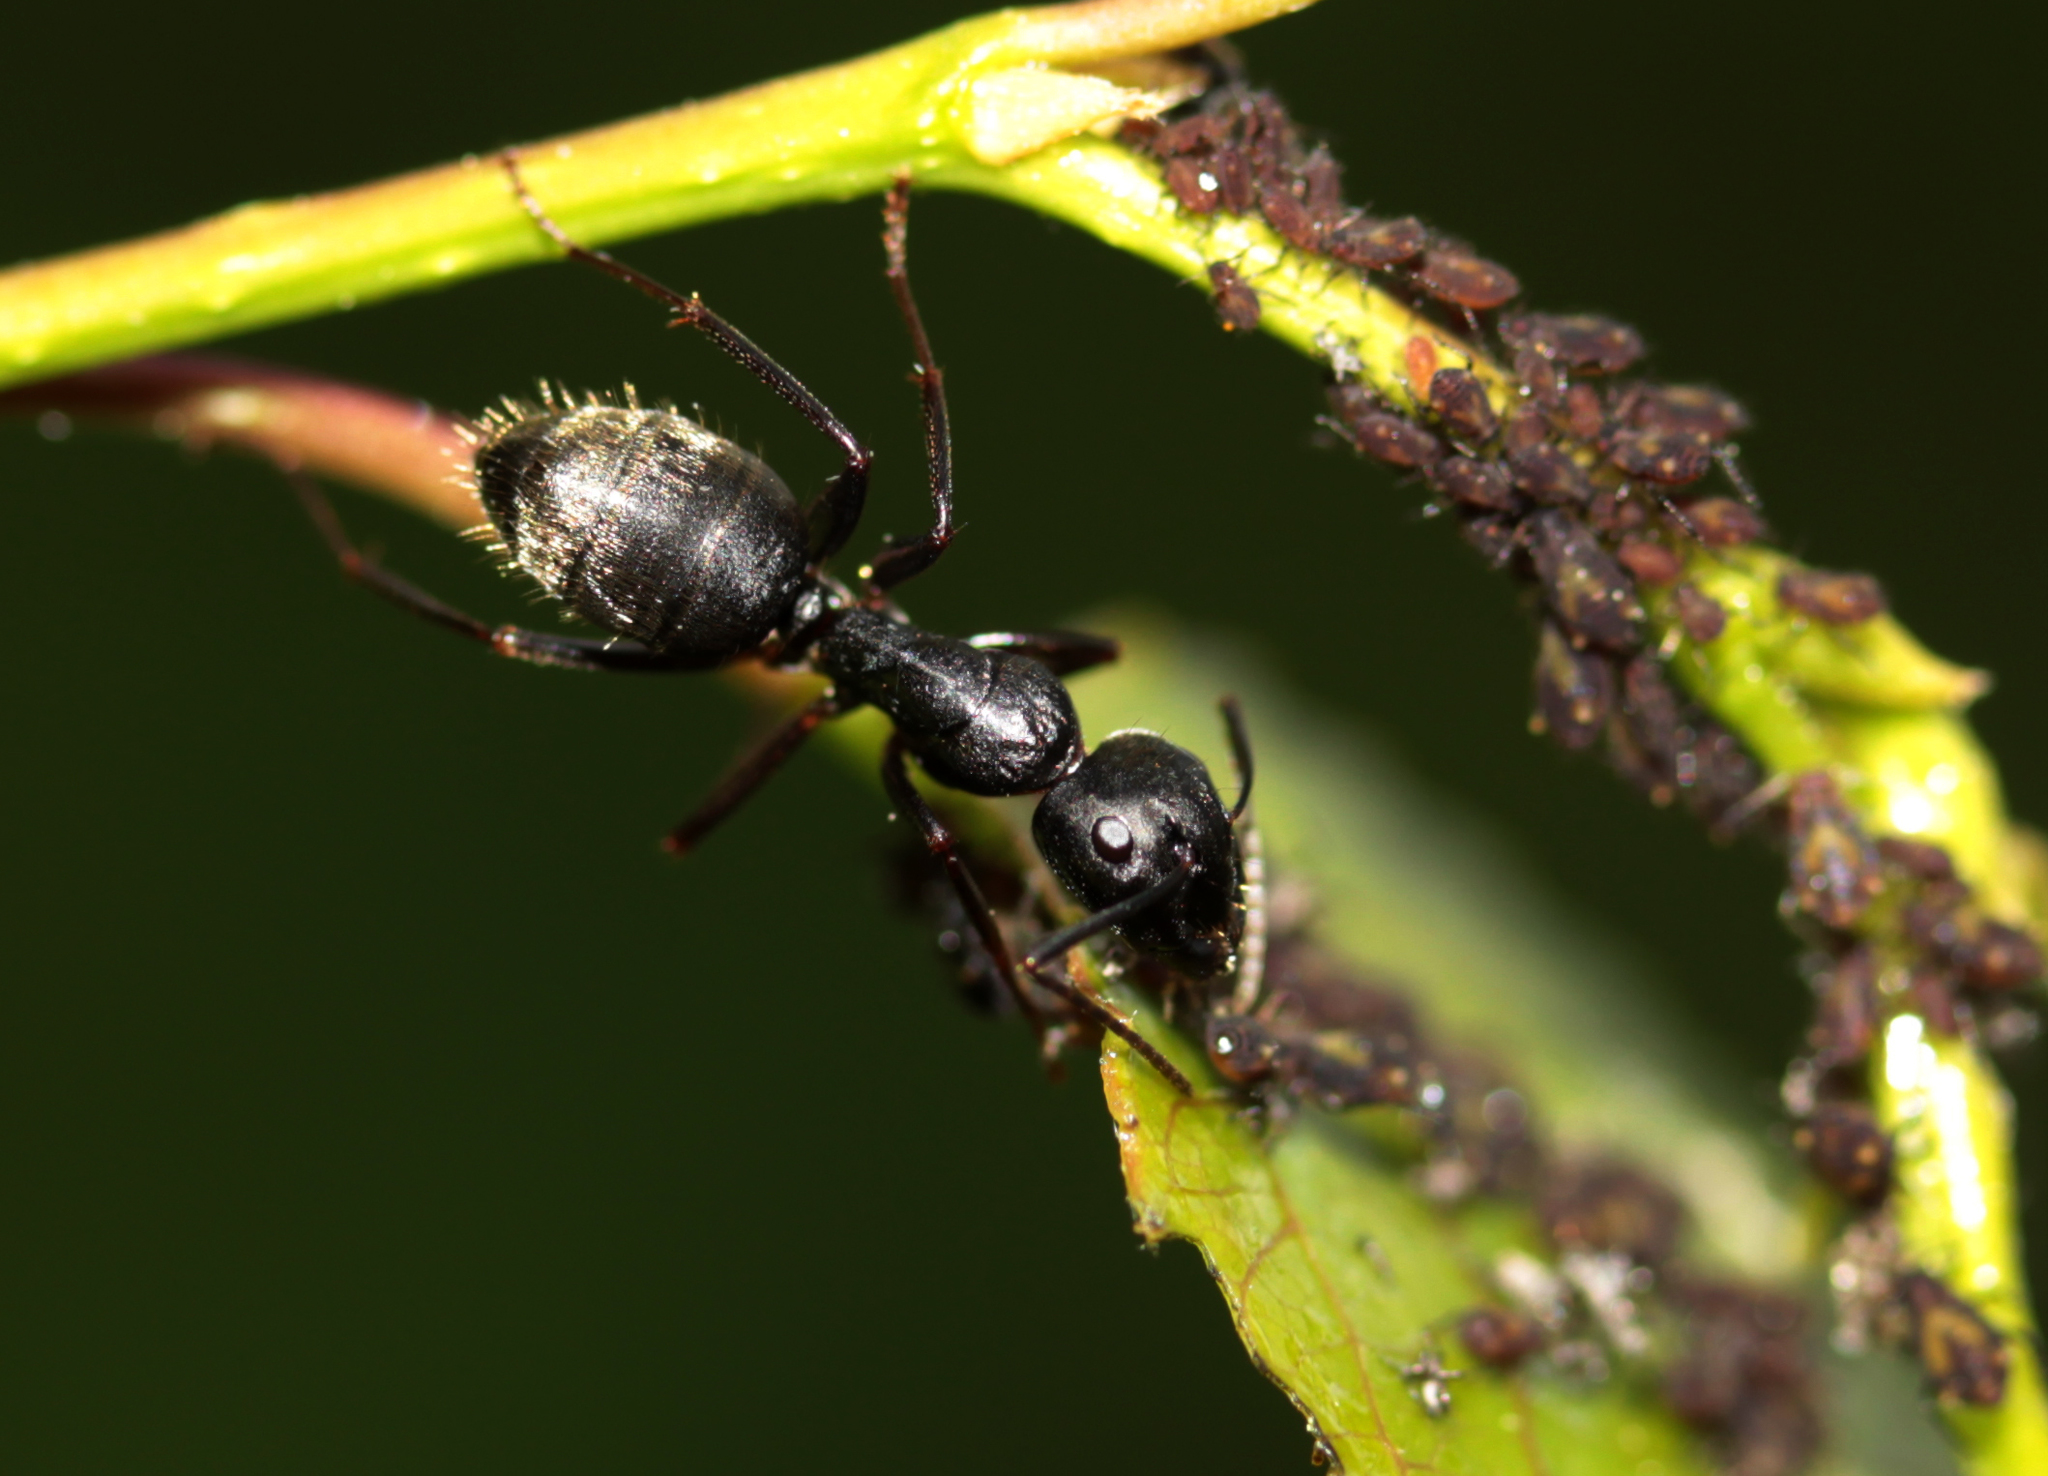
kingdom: Animalia
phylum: Arthropoda
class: Insecta
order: Hymenoptera
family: Formicidae
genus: Camponotus
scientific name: Camponotus pennsylvanicus
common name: Black carpenter ant
